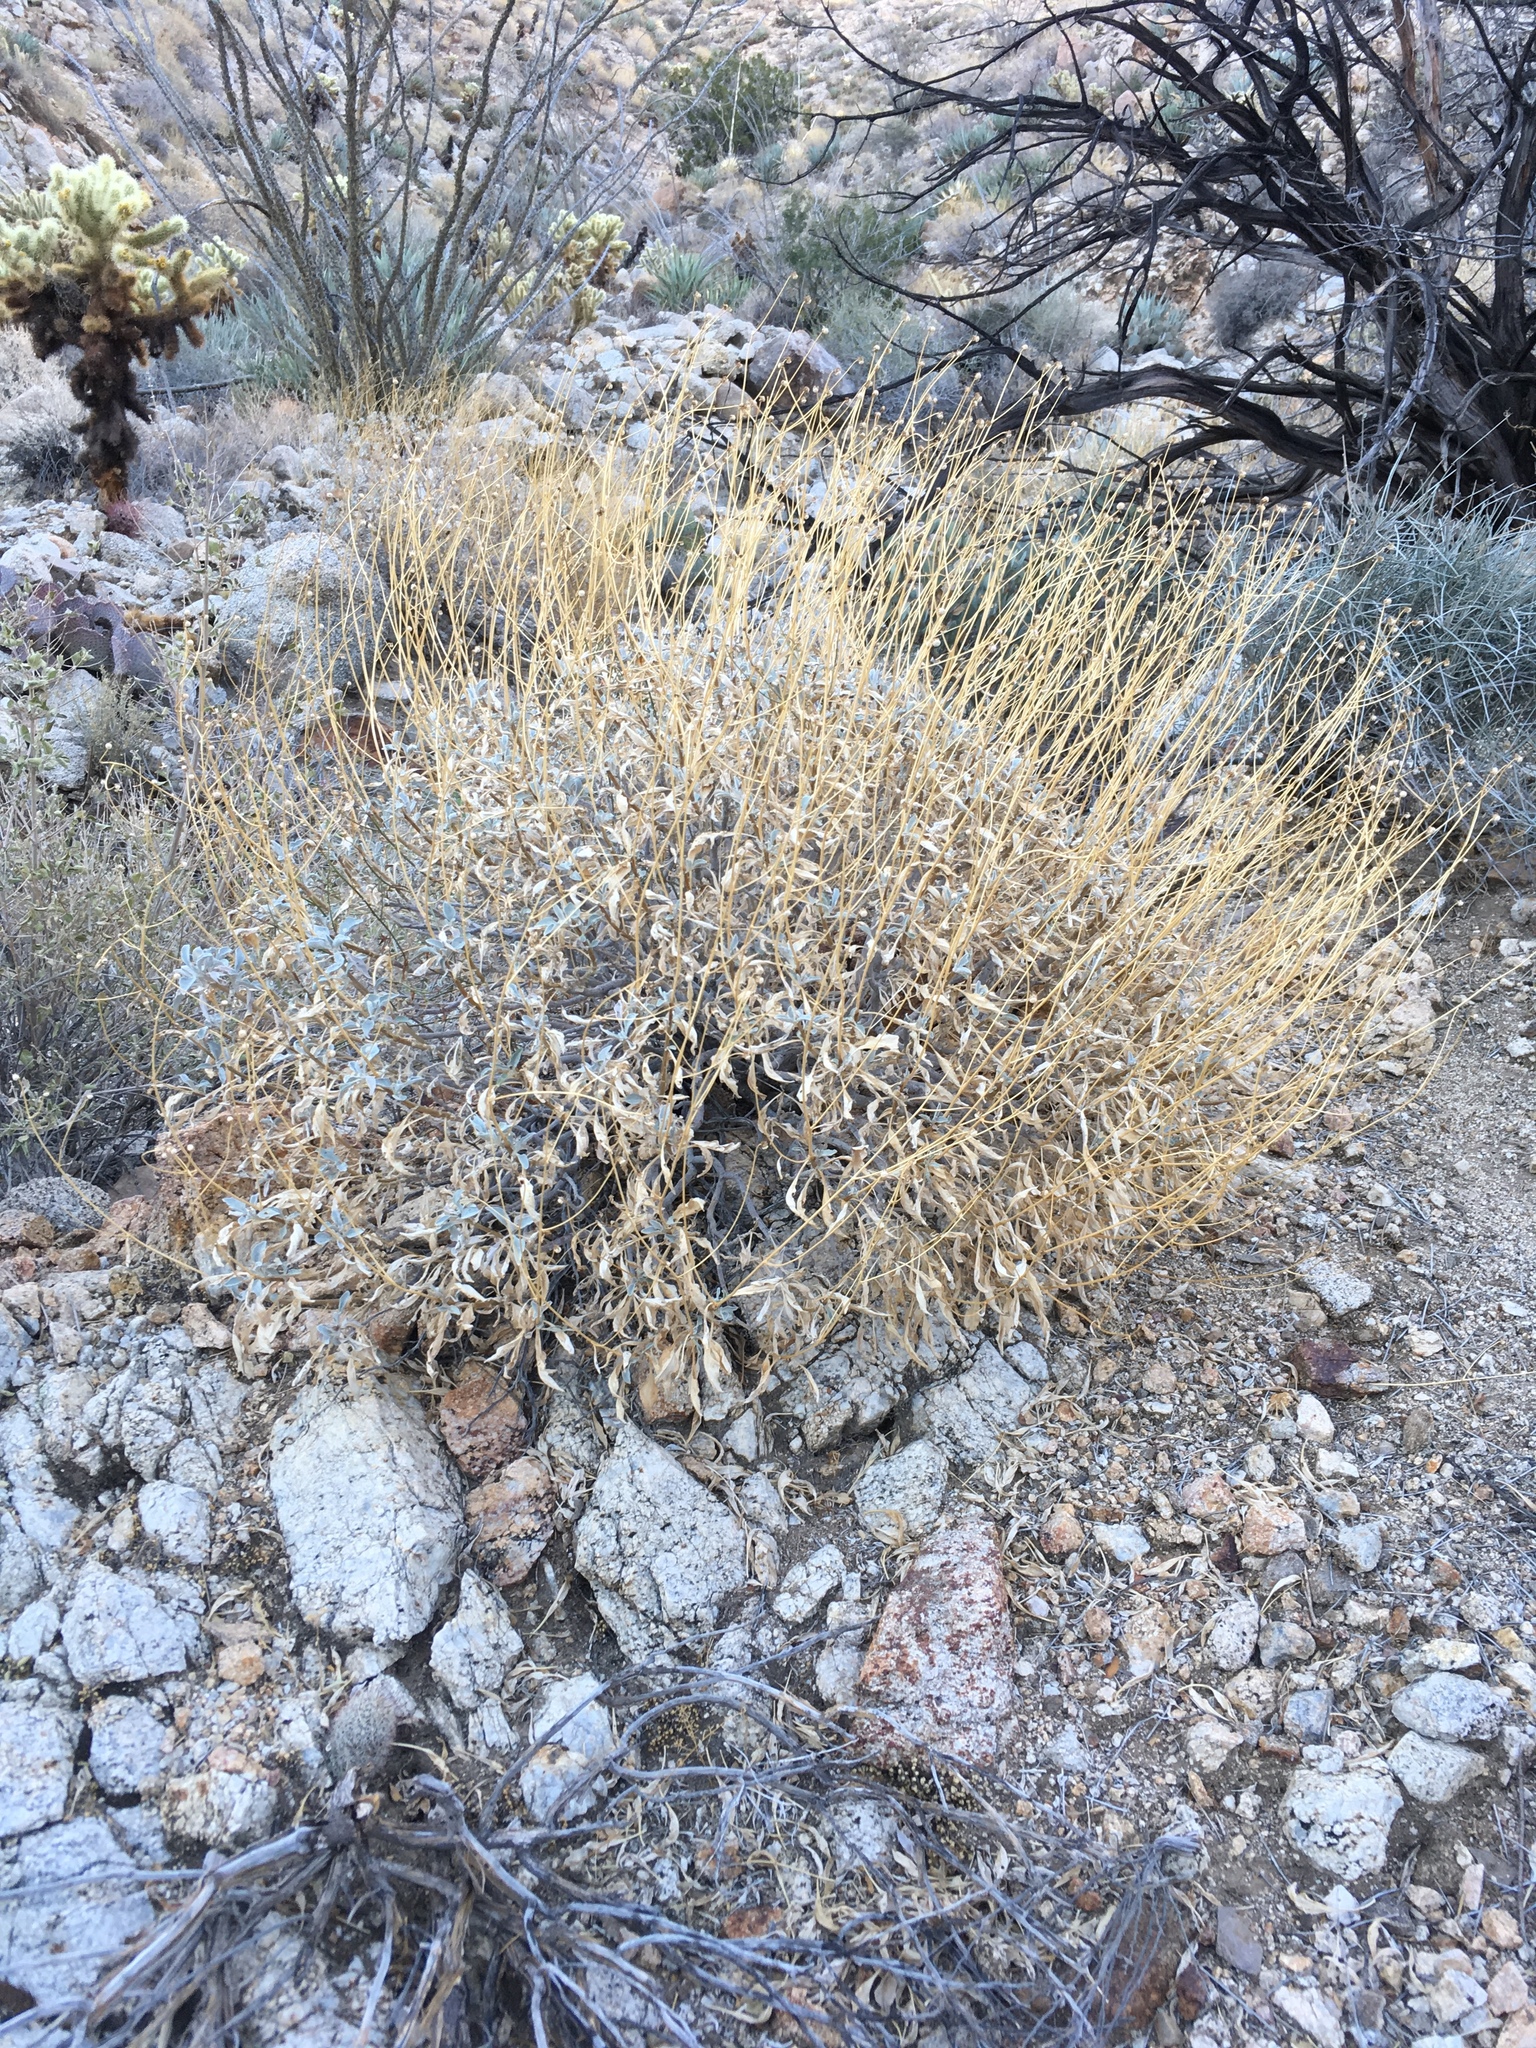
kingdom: Plantae
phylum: Tracheophyta
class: Magnoliopsida
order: Asterales
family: Asteraceae
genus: Encelia
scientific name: Encelia farinosa
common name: Brittlebush
